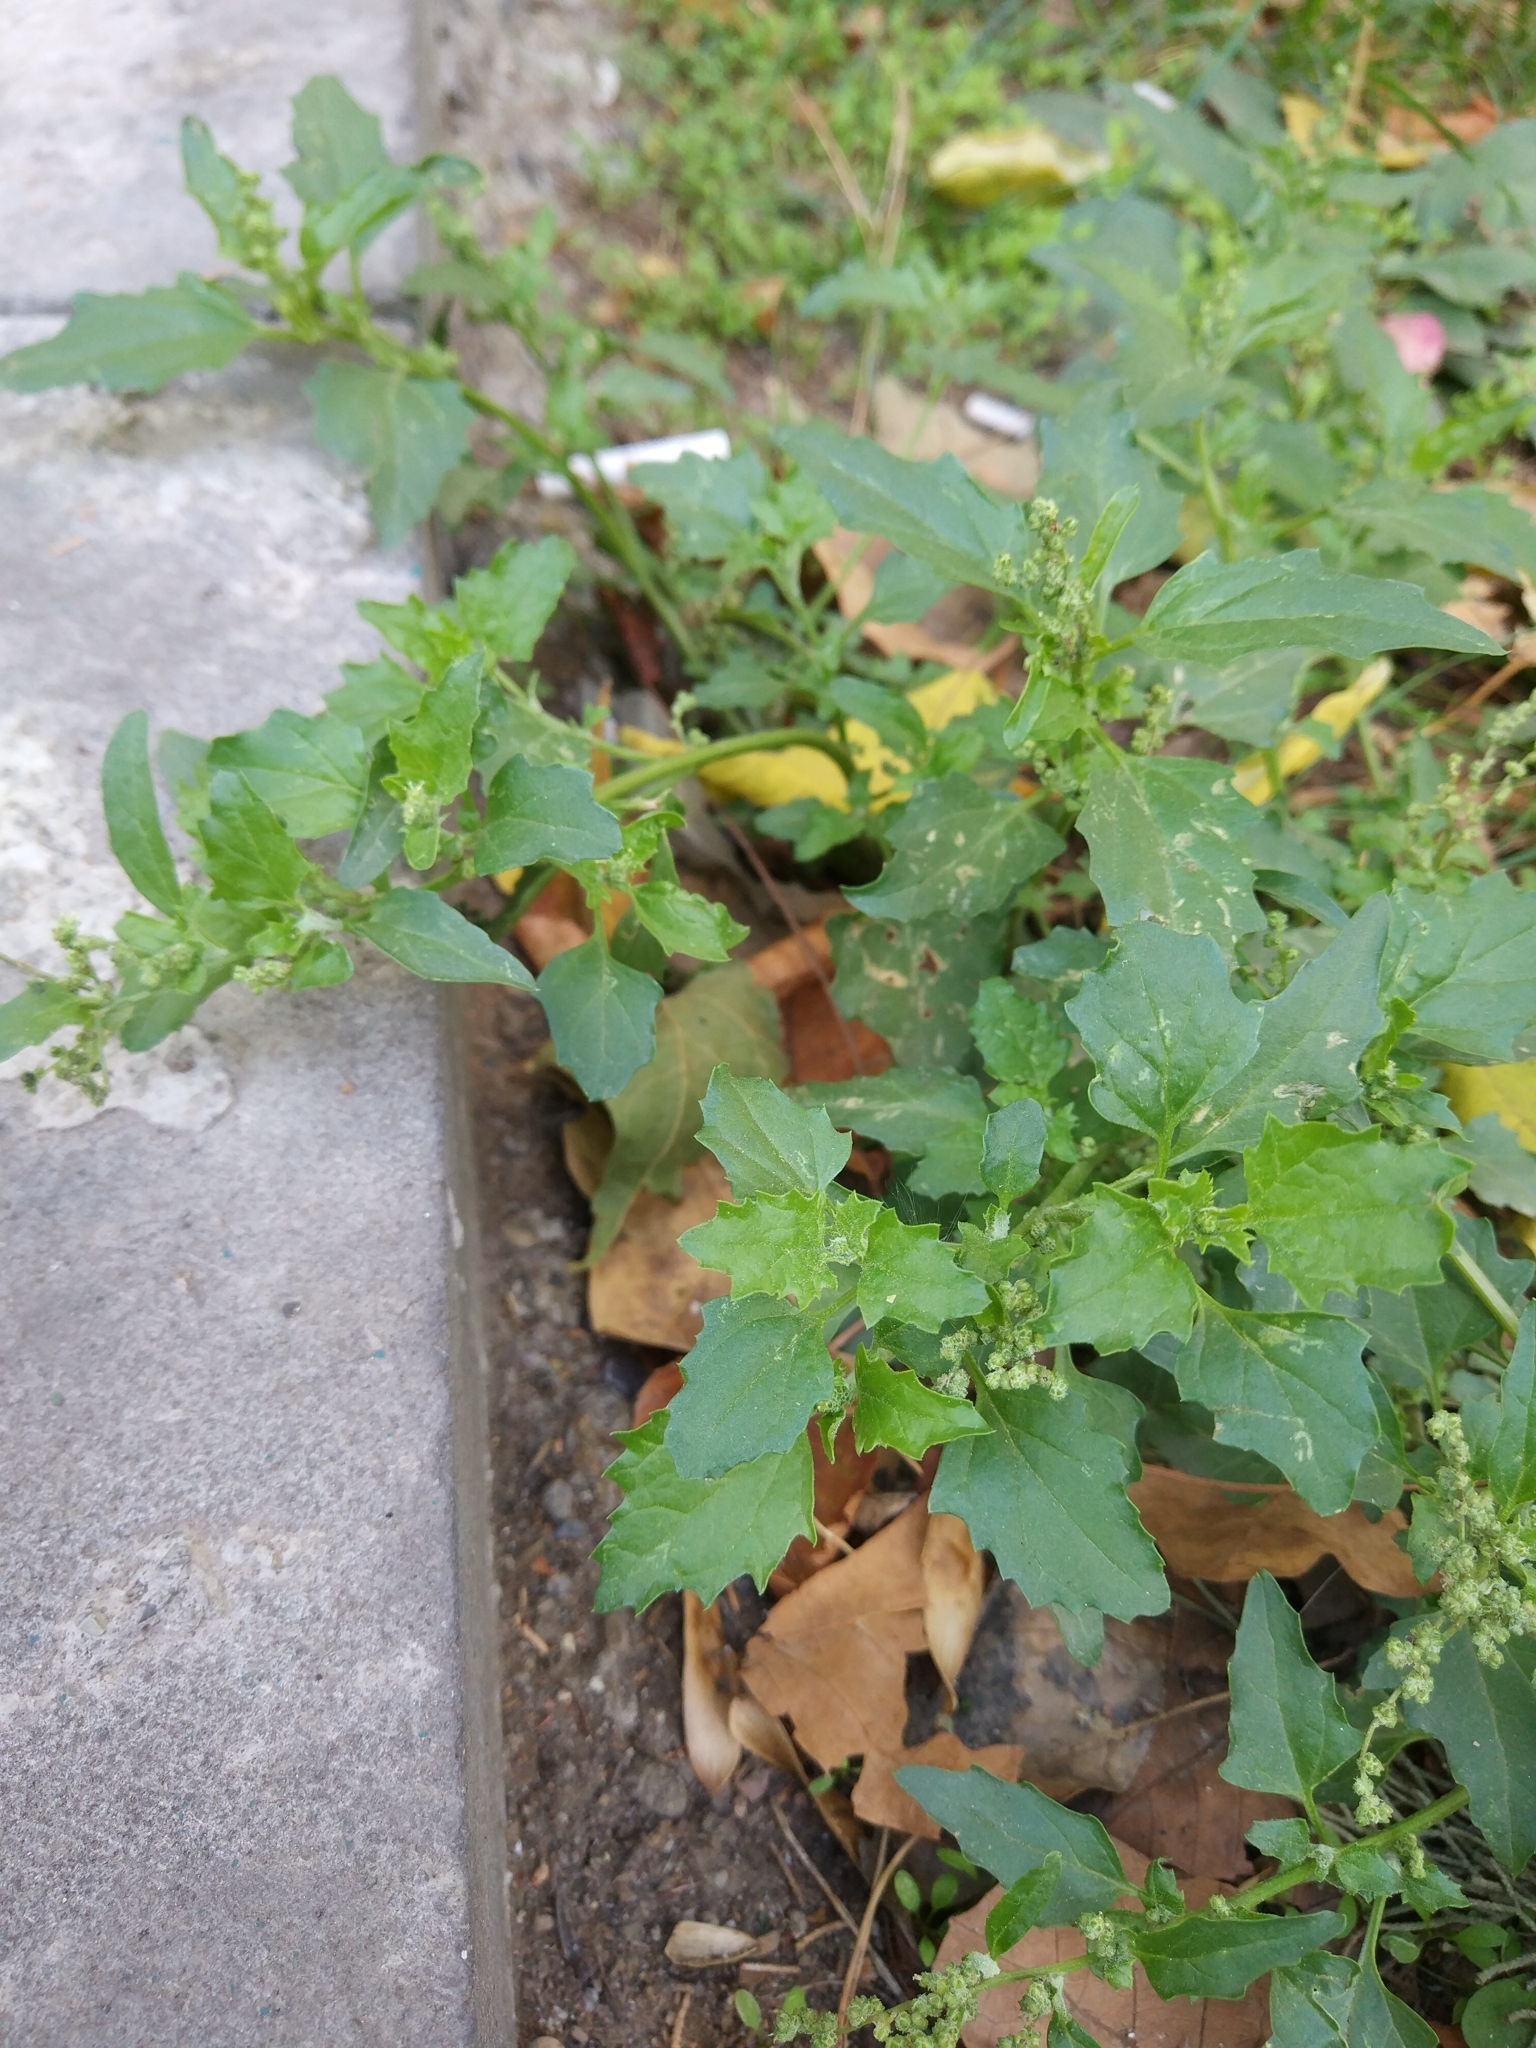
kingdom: Plantae
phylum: Tracheophyta
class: Magnoliopsida
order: Caryophyllales
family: Amaranthaceae
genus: Oxybasis
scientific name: Oxybasis glauca
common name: Glaucous goosefoot
